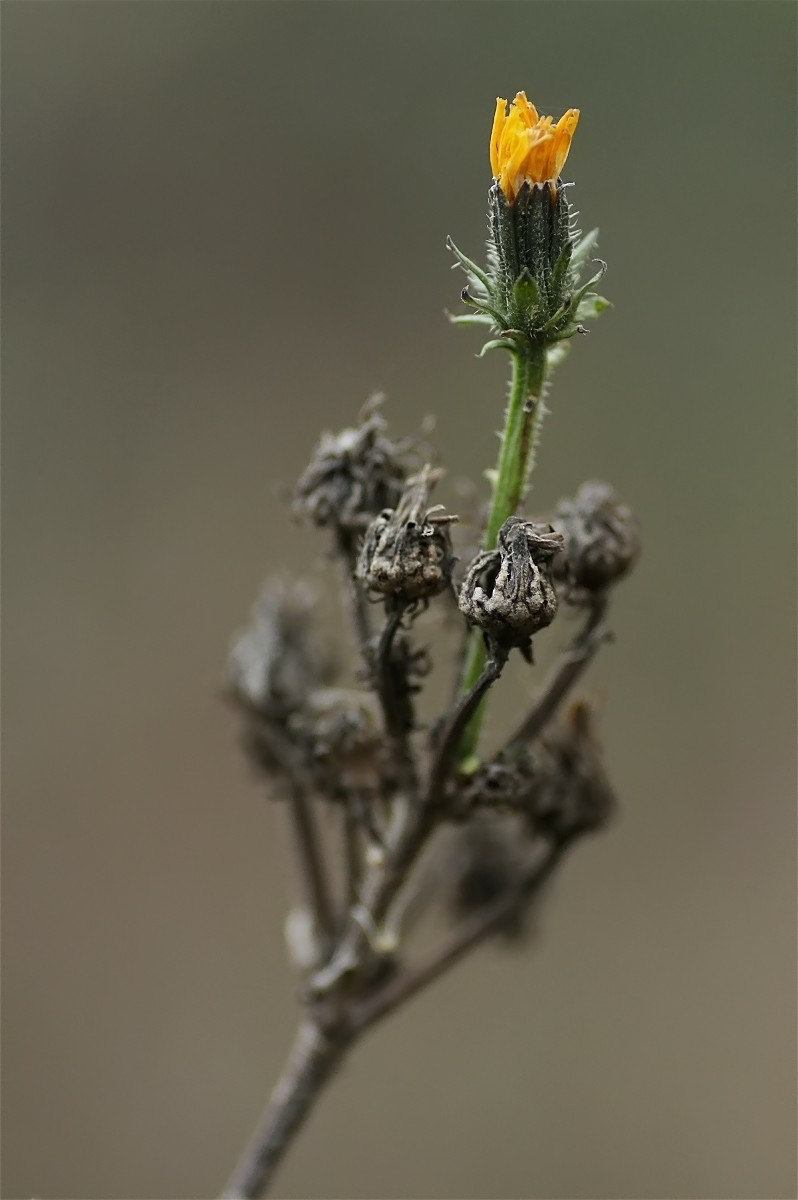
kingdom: Plantae
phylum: Tracheophyta
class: Magnoliopsida
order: Asterales
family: Asteraceae
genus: Picris
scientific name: Picris hieracioides
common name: Hawkweed oxtongue
